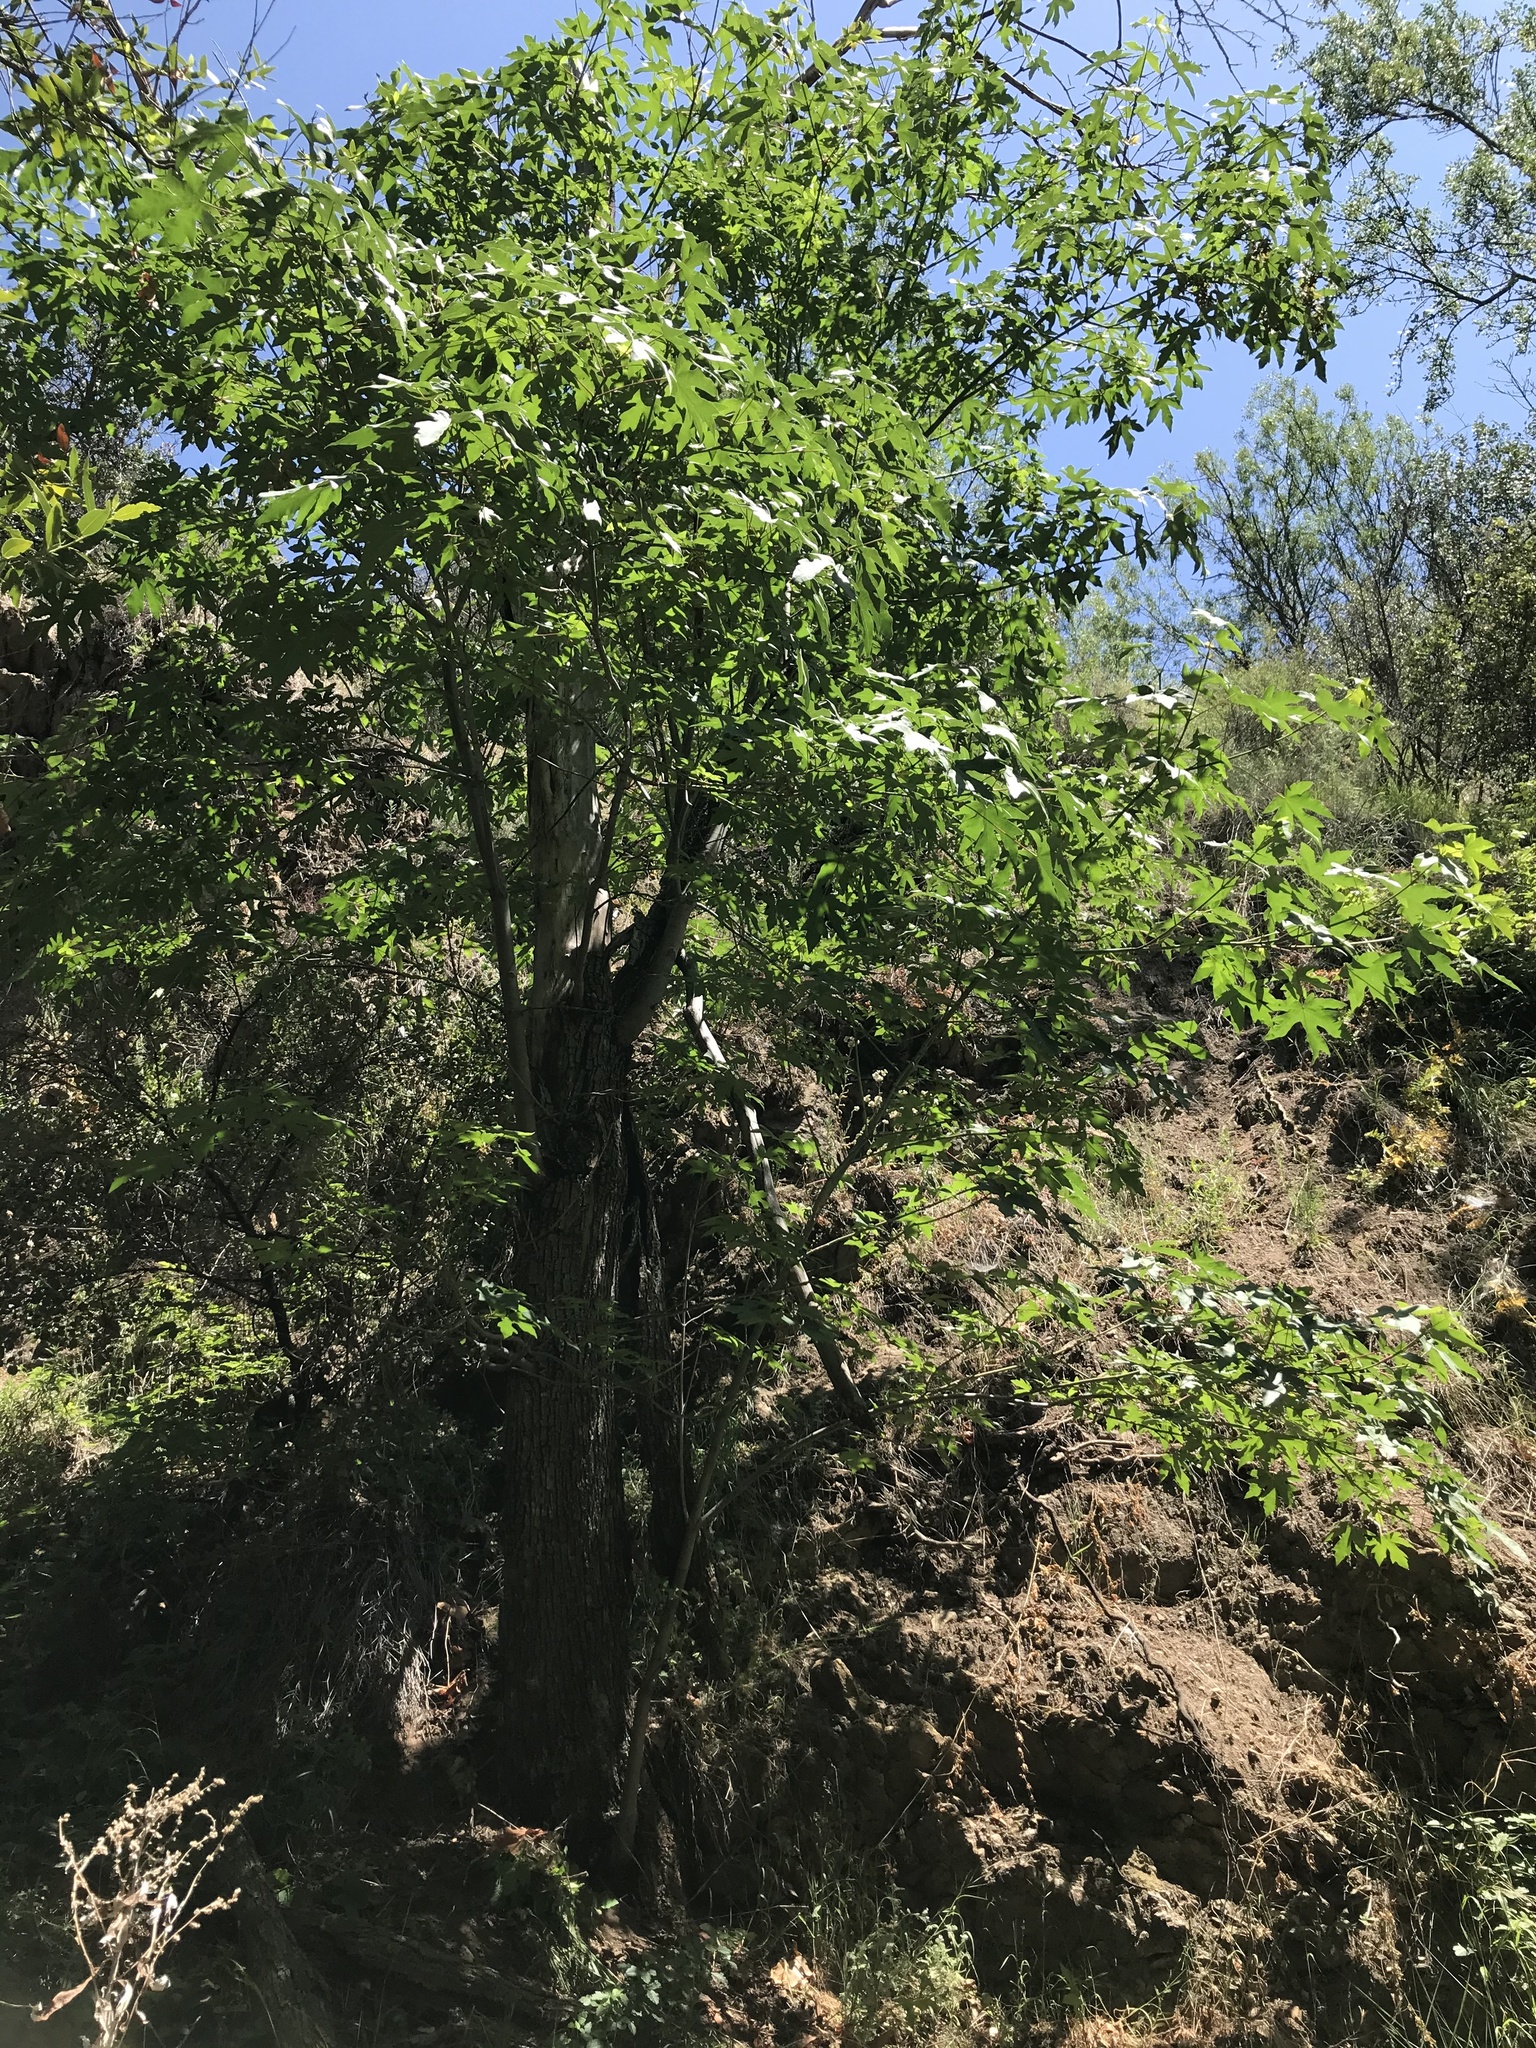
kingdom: Plantae
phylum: Tracheophyta
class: Magnoliopsida
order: Sapindales
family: Sapindaceae
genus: Acer
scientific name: Acer macrophyllum
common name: Oregon maple
